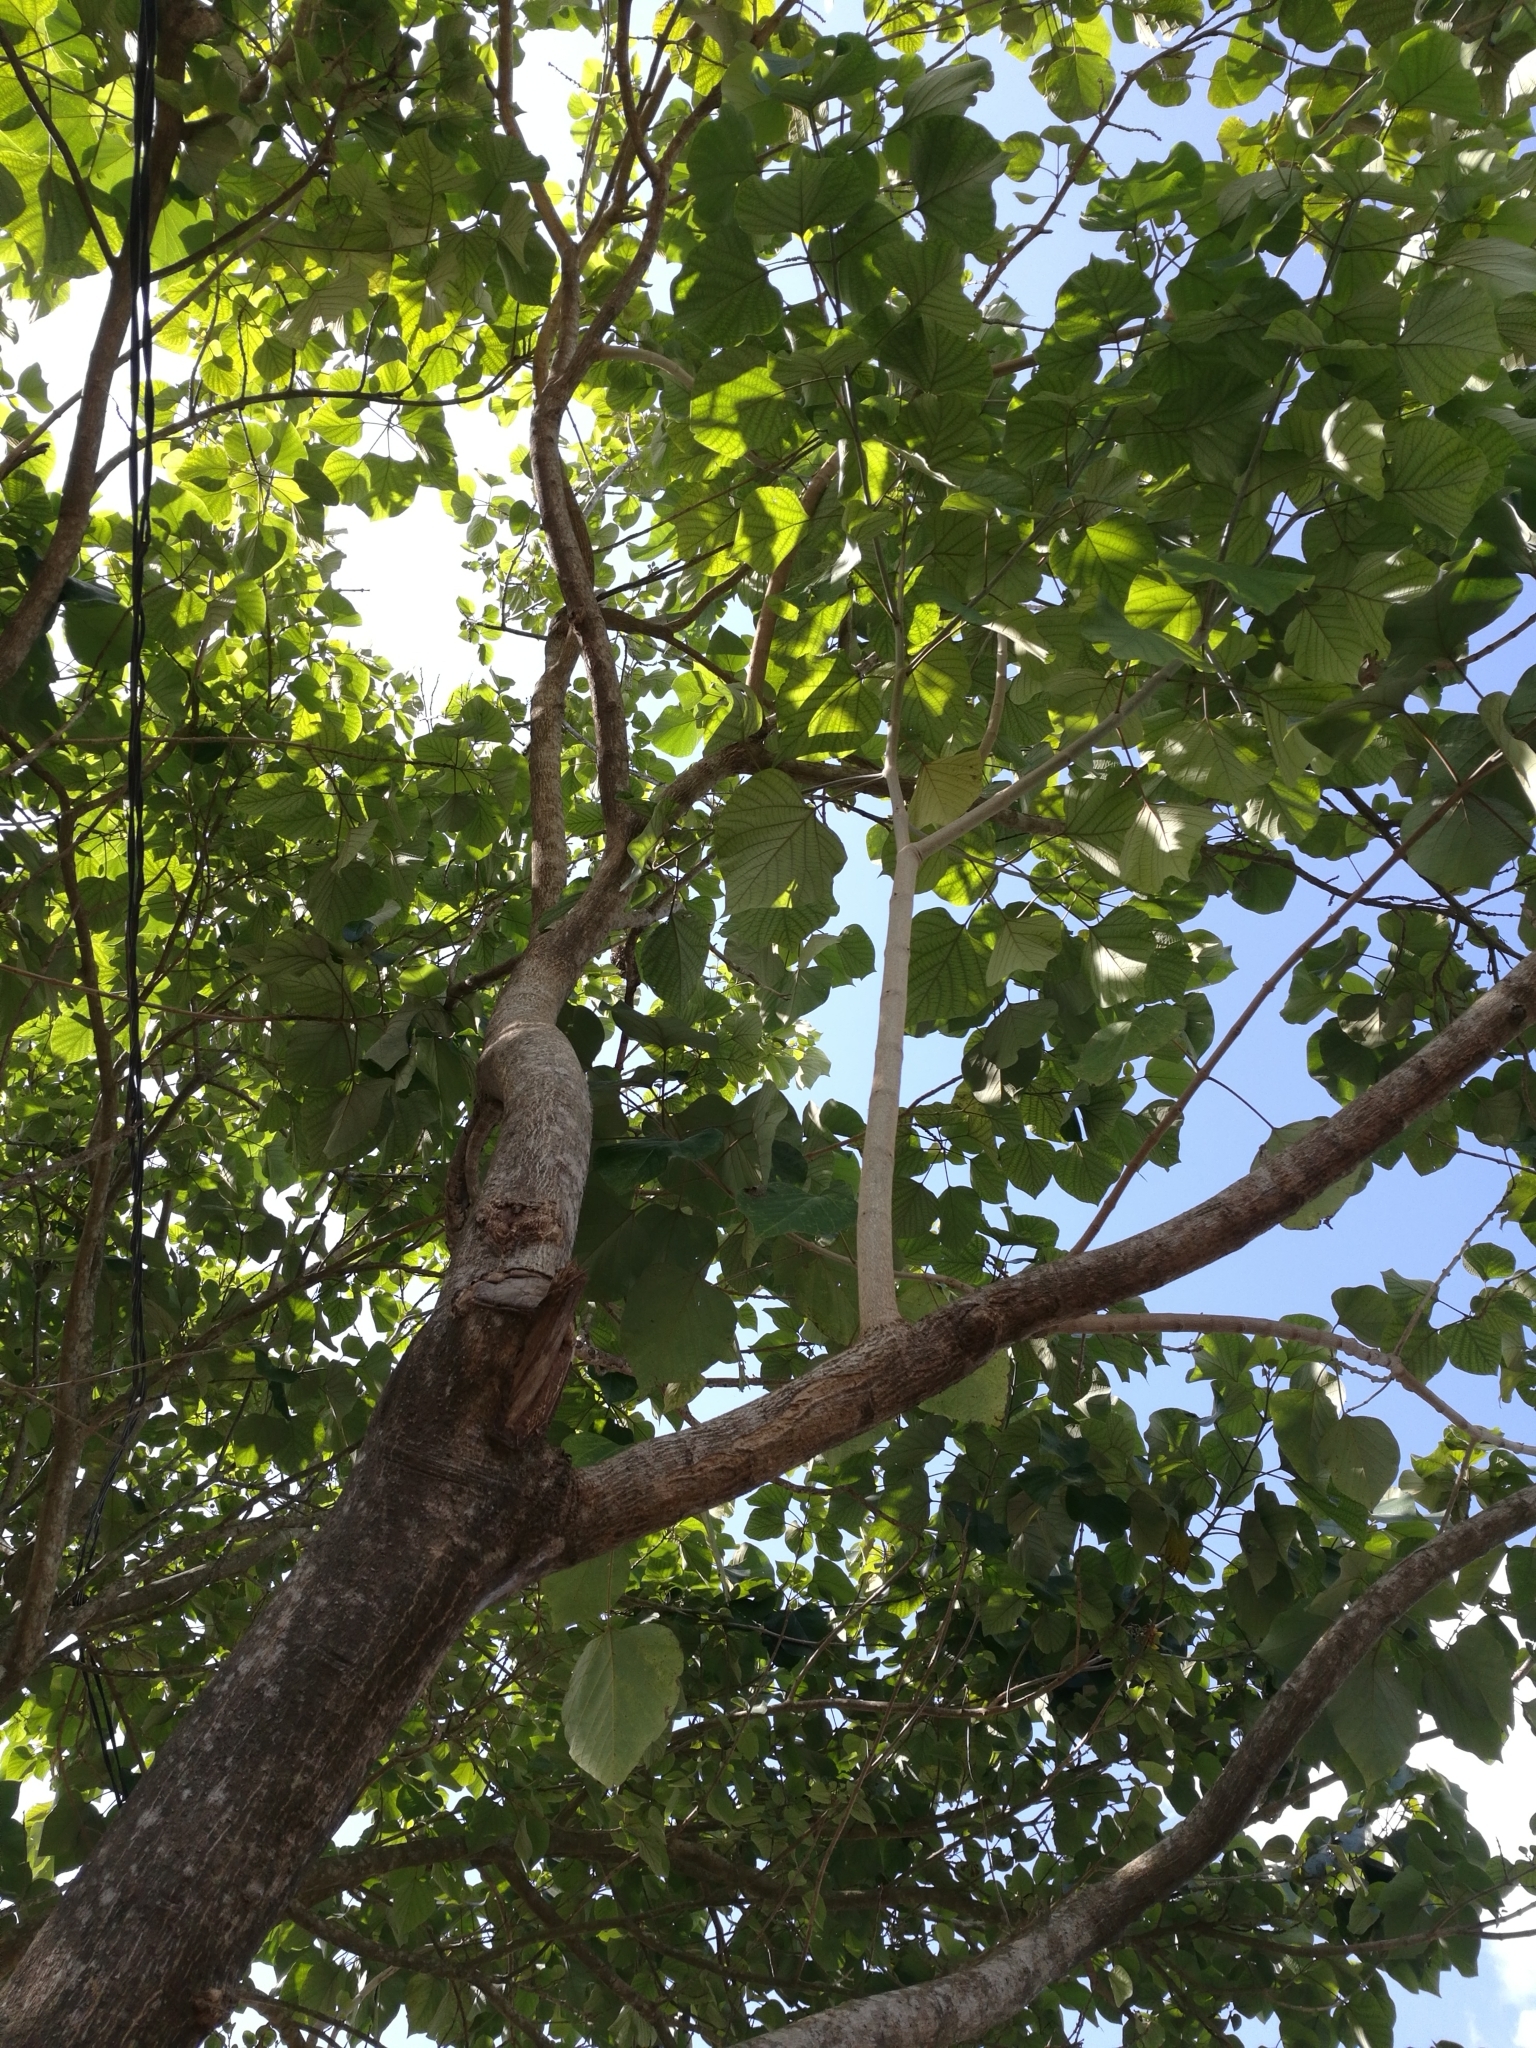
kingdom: Plantae
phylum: Tracheophyta
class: Magnoliopsida
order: Lamiales
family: Lamiaceae
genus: Gmelina
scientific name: Gmelina arborea
